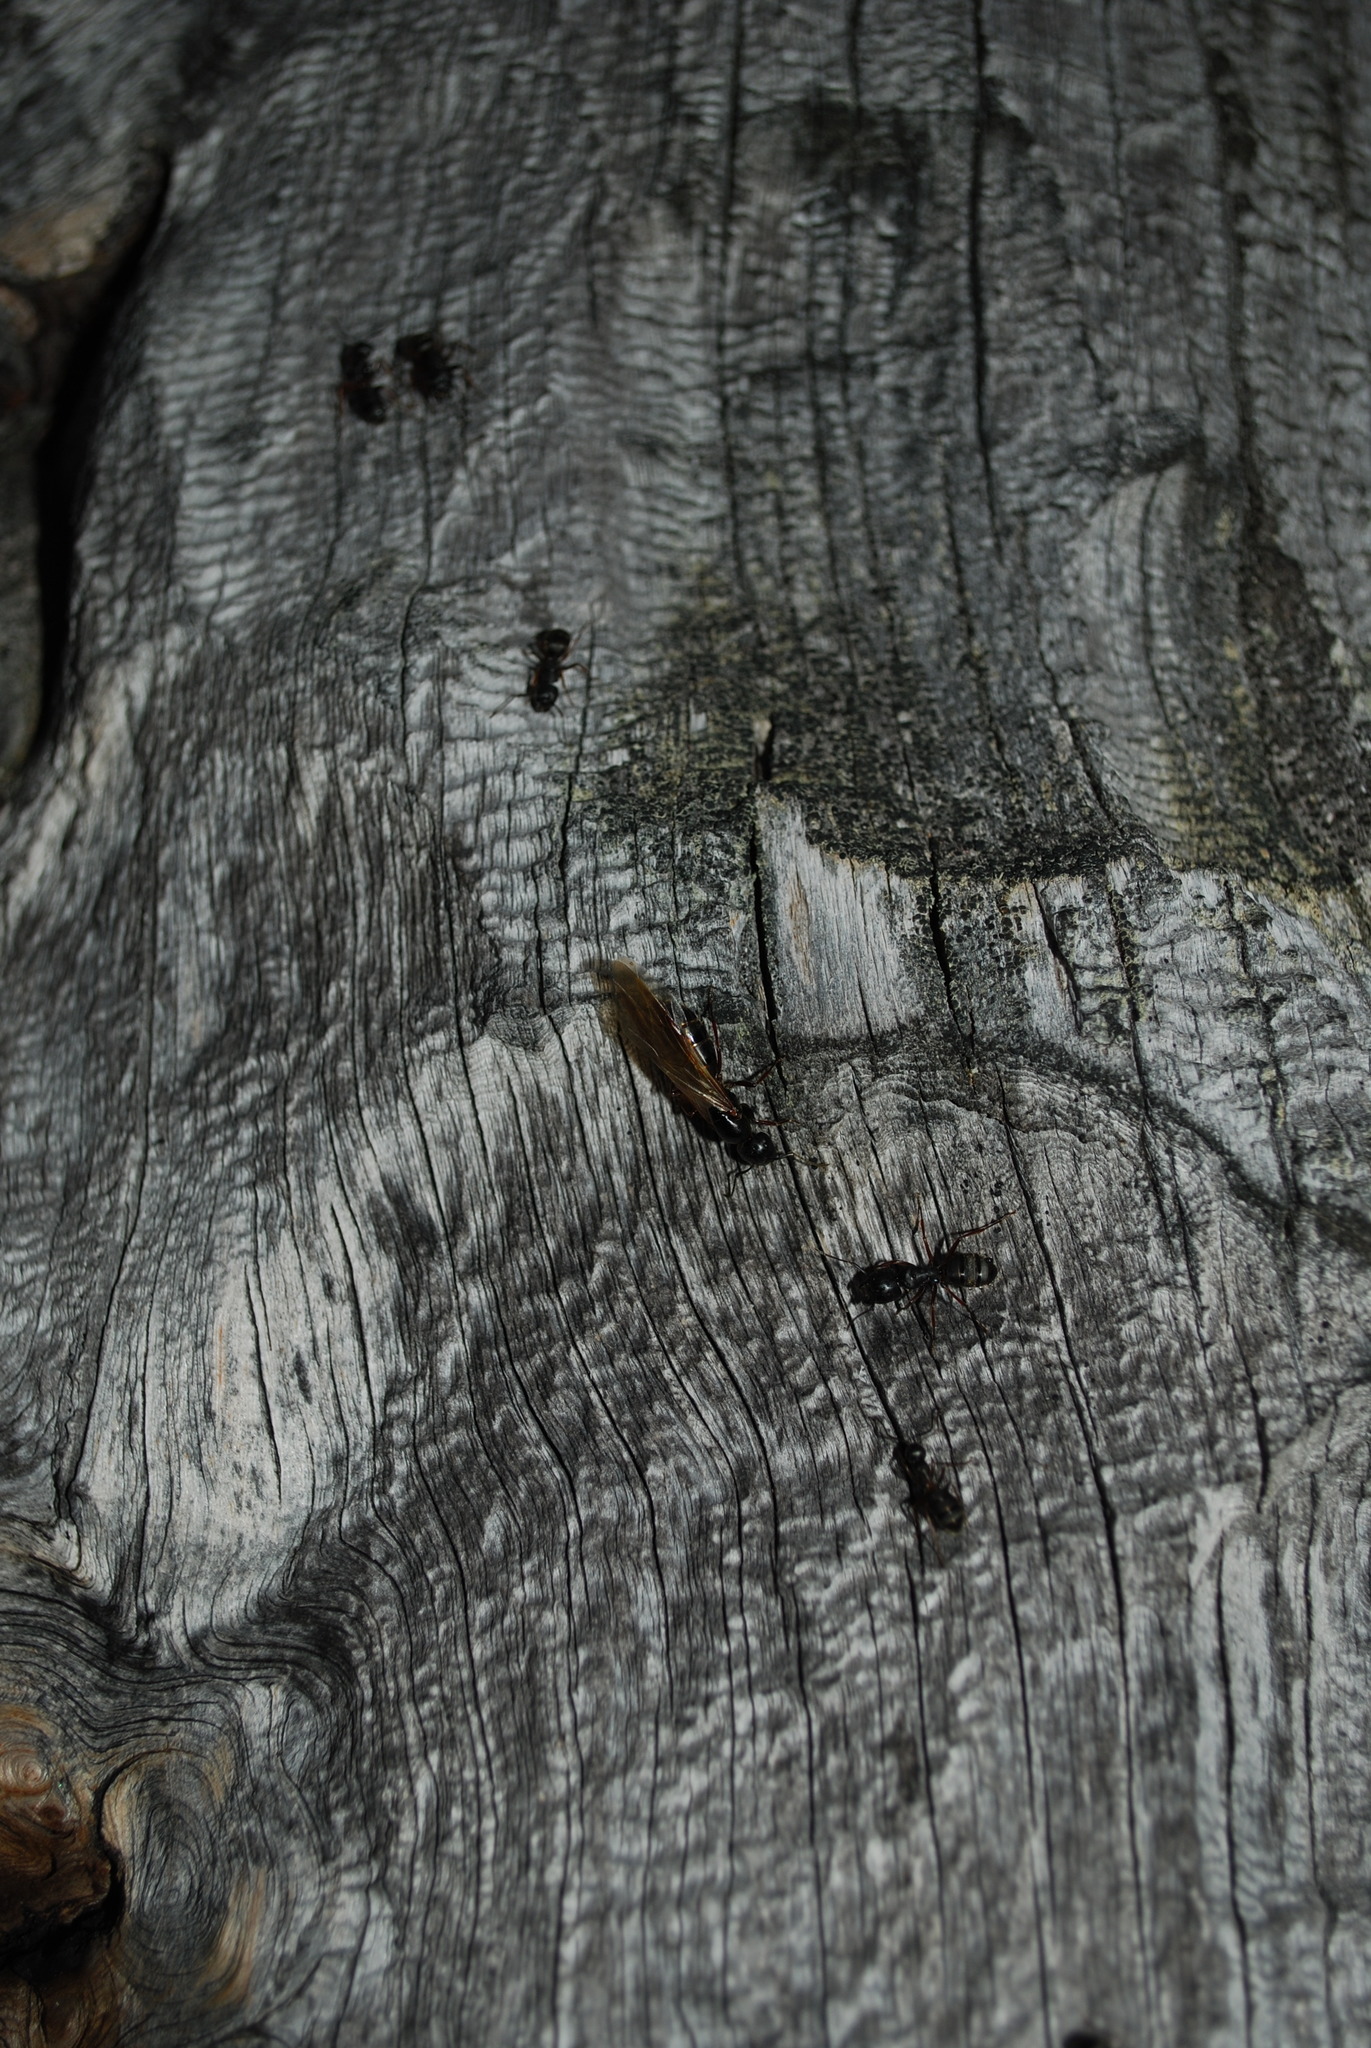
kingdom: Animalia
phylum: Arthropoda
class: Insecta
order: Hymenoptera
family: Formicidae
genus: Camponotus
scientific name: Camponotus modoc
